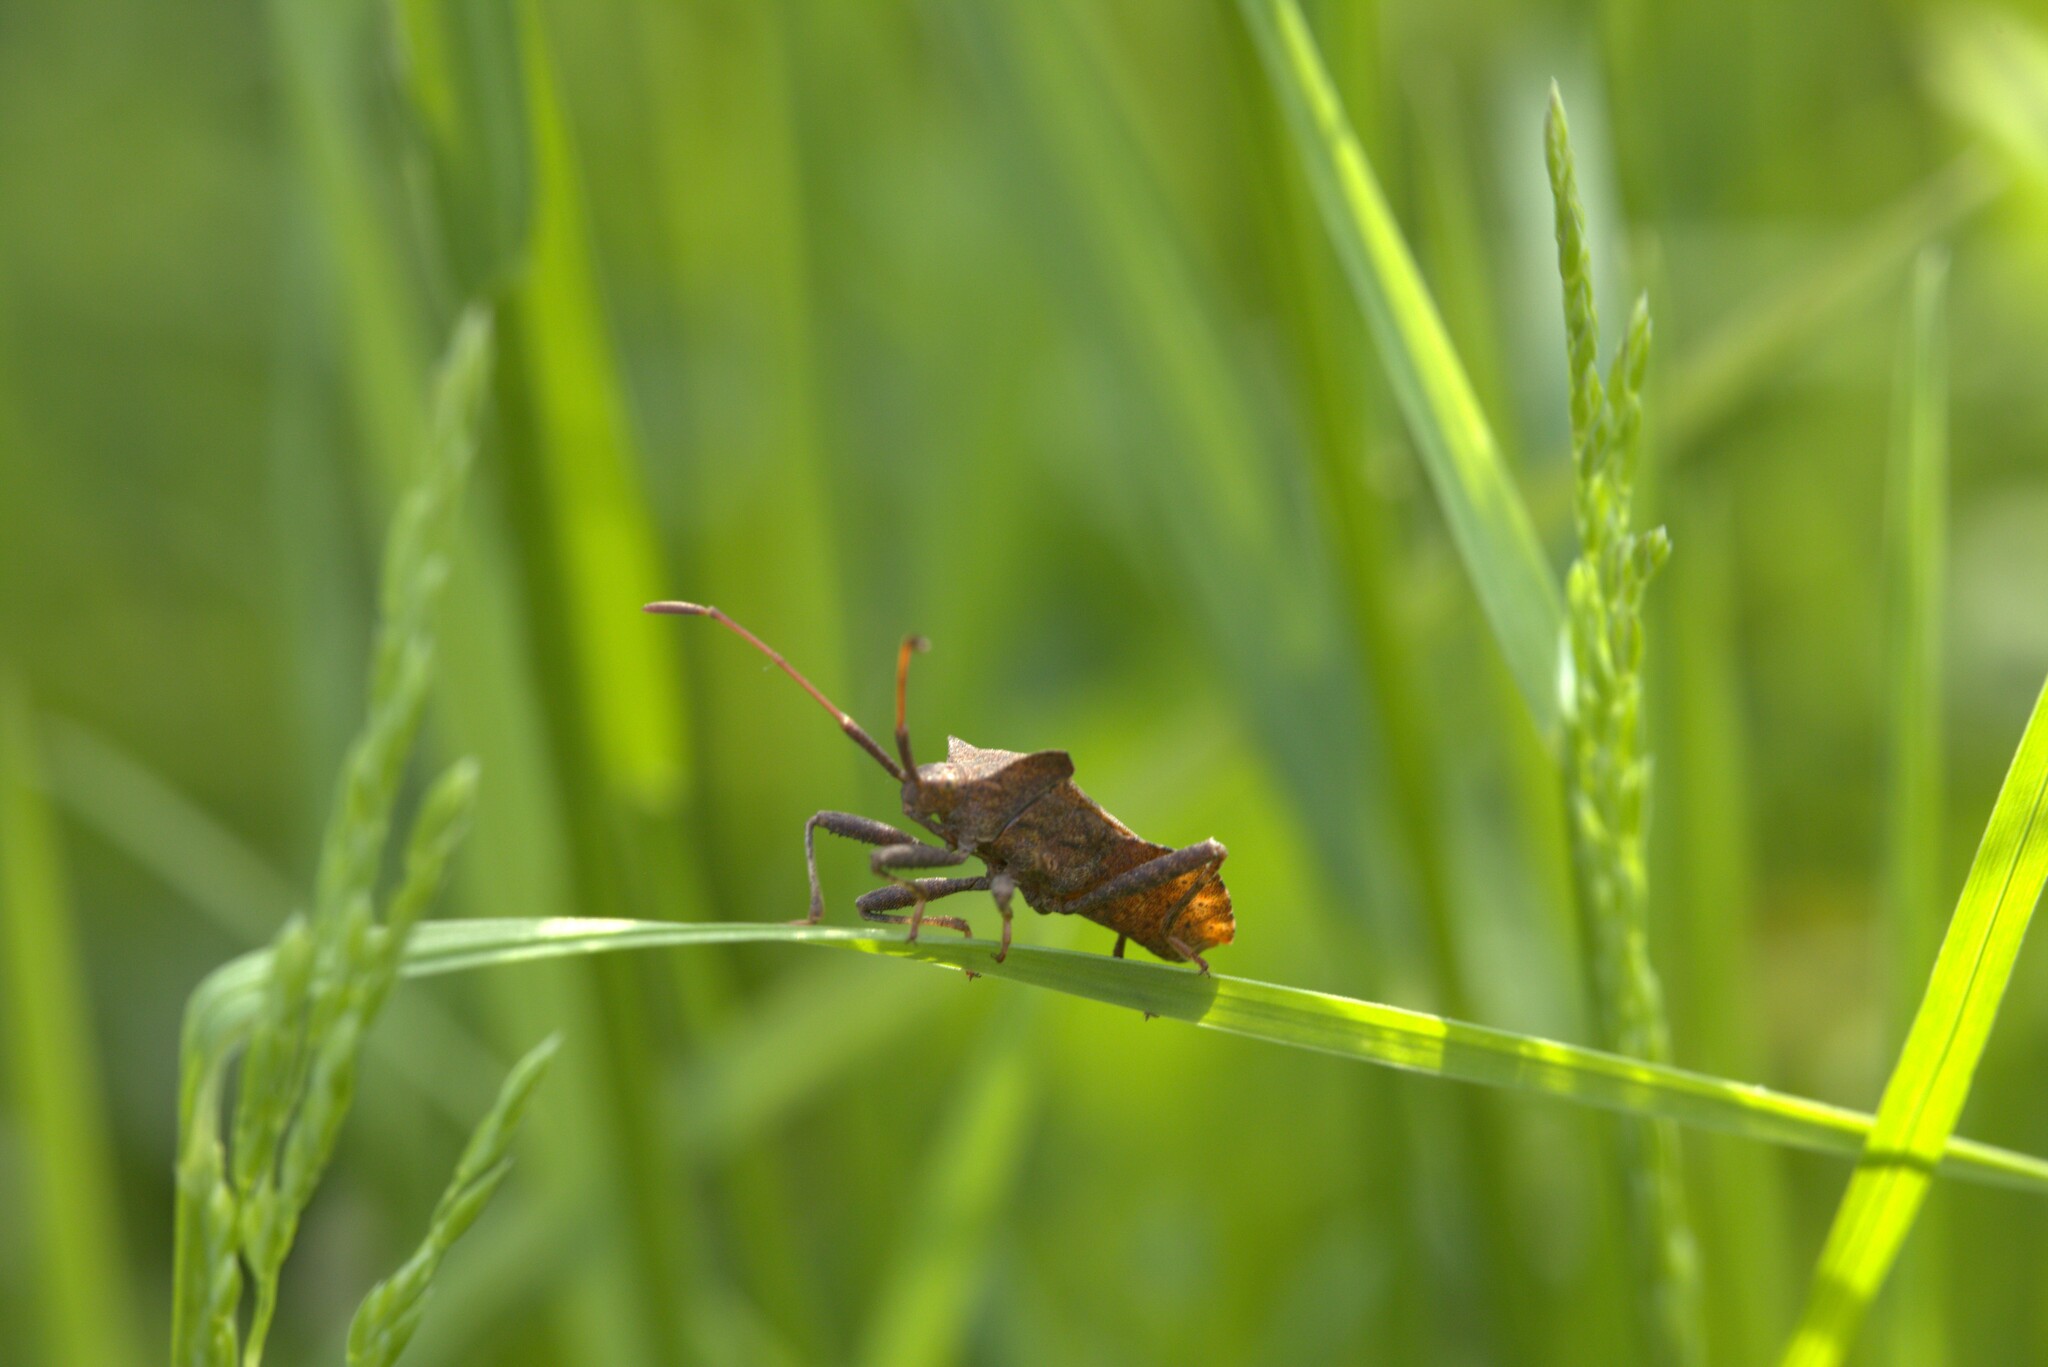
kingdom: Animalia
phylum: Arthropoda
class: Insecta
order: Hemiptera
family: Coreidae
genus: Coreus
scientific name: Coreus marginatus
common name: Dock bug
